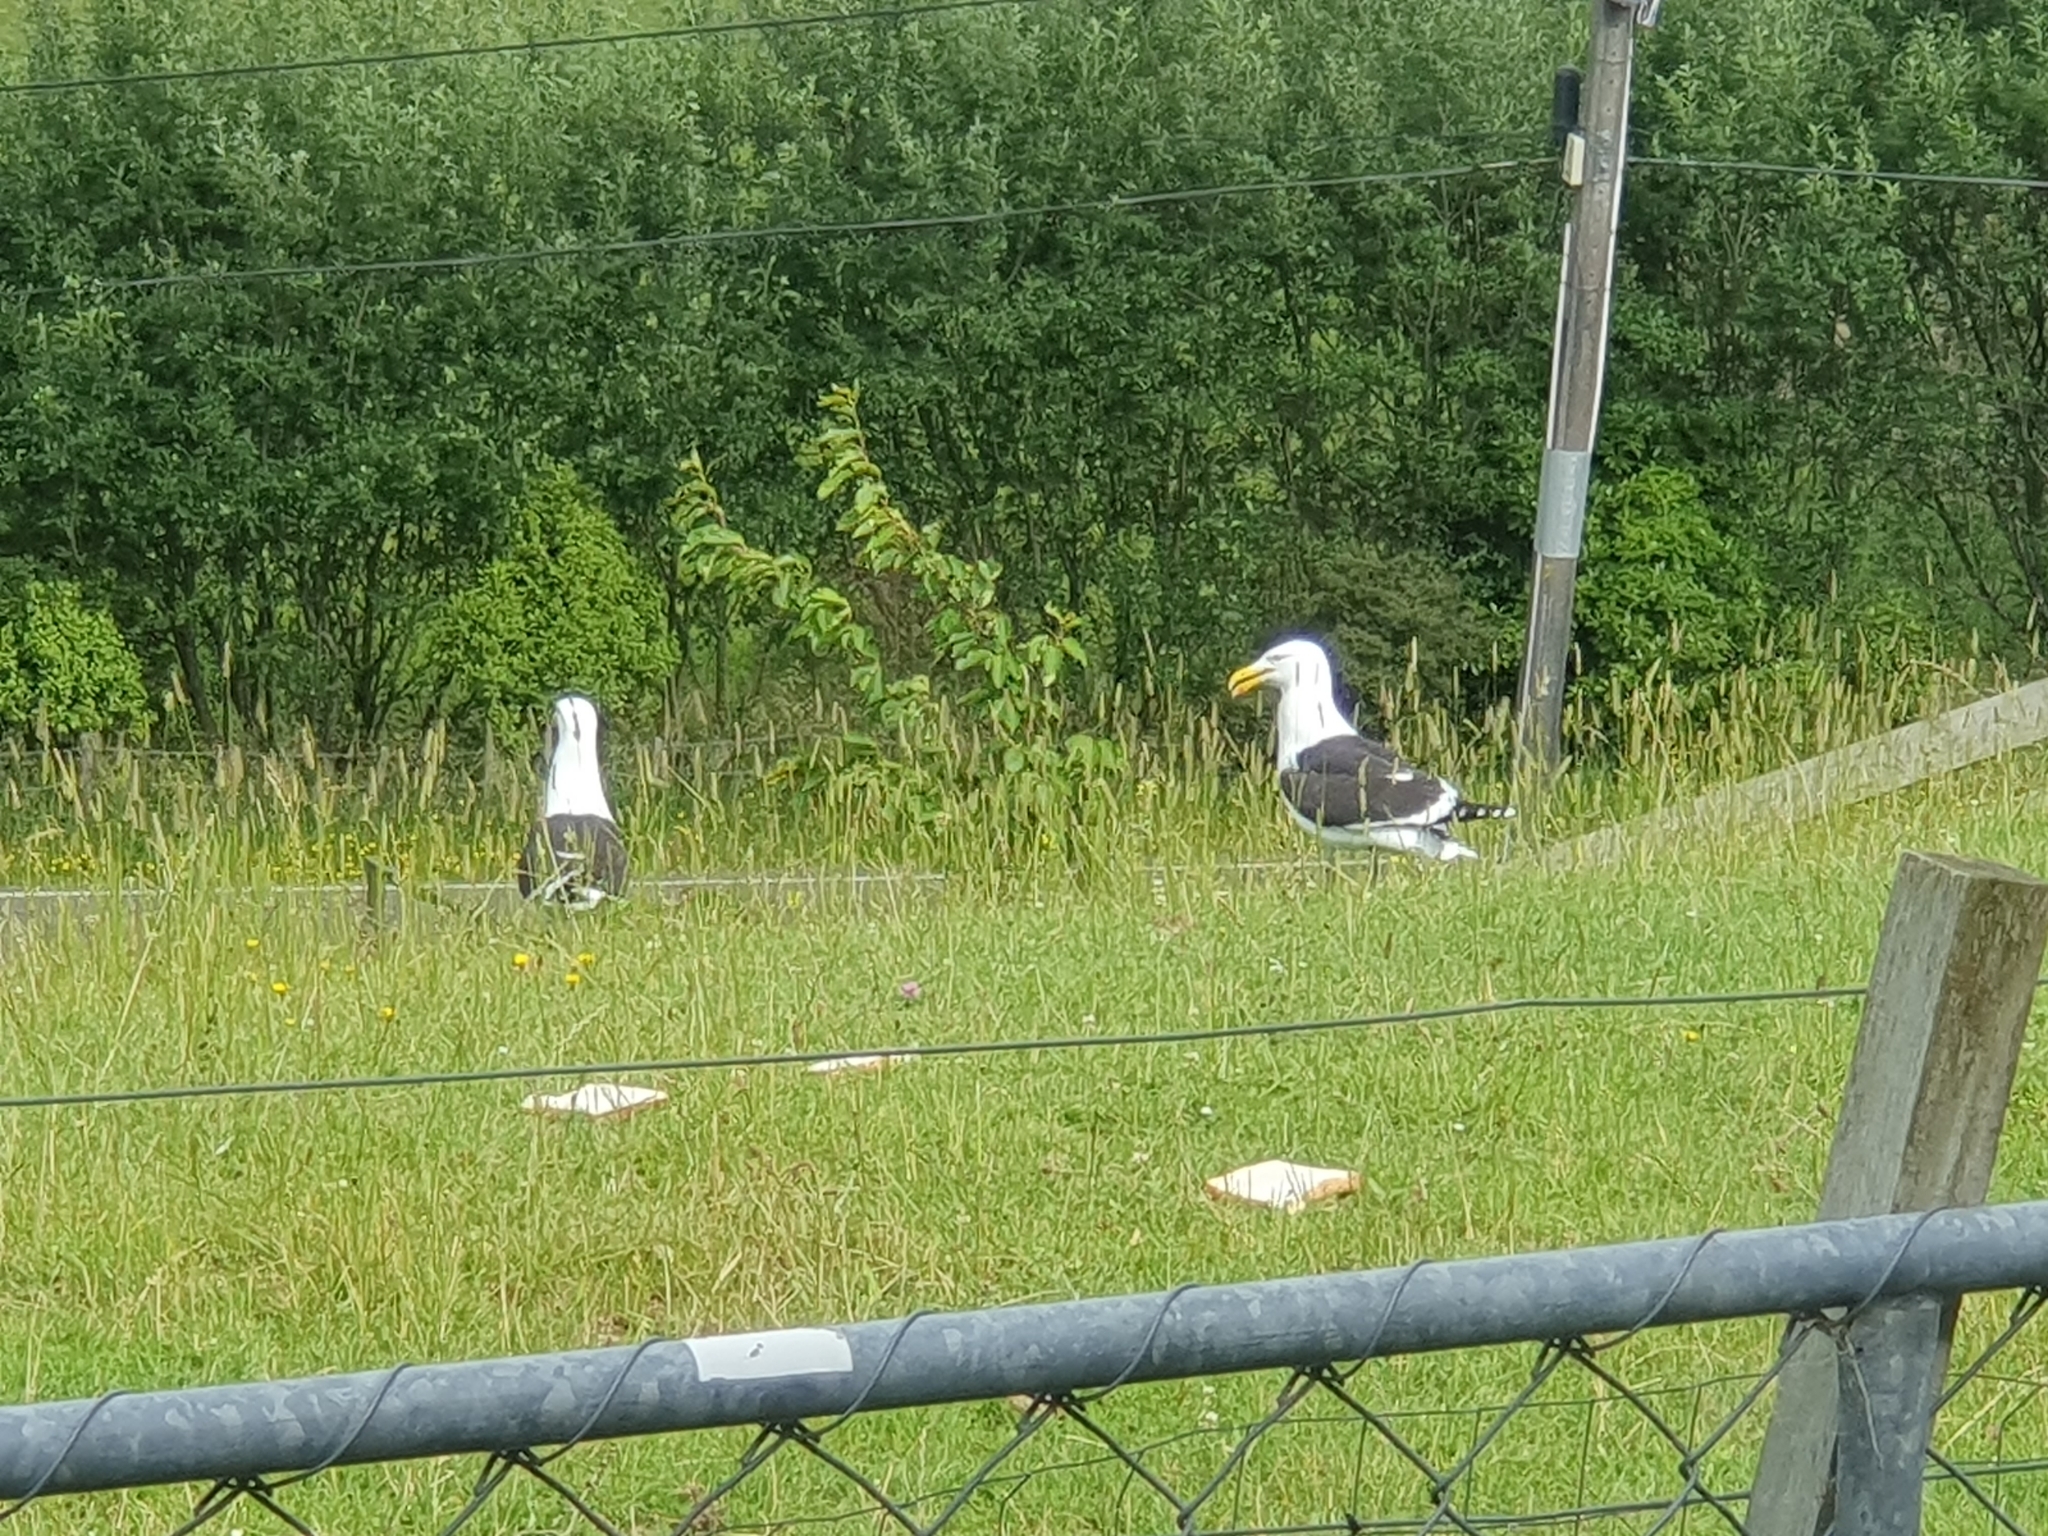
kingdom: Animalia
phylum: Chordata
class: Aves
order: Charadriiformes
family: Laridae
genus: Larus
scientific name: Larus dominicanus
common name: Kelp gull
